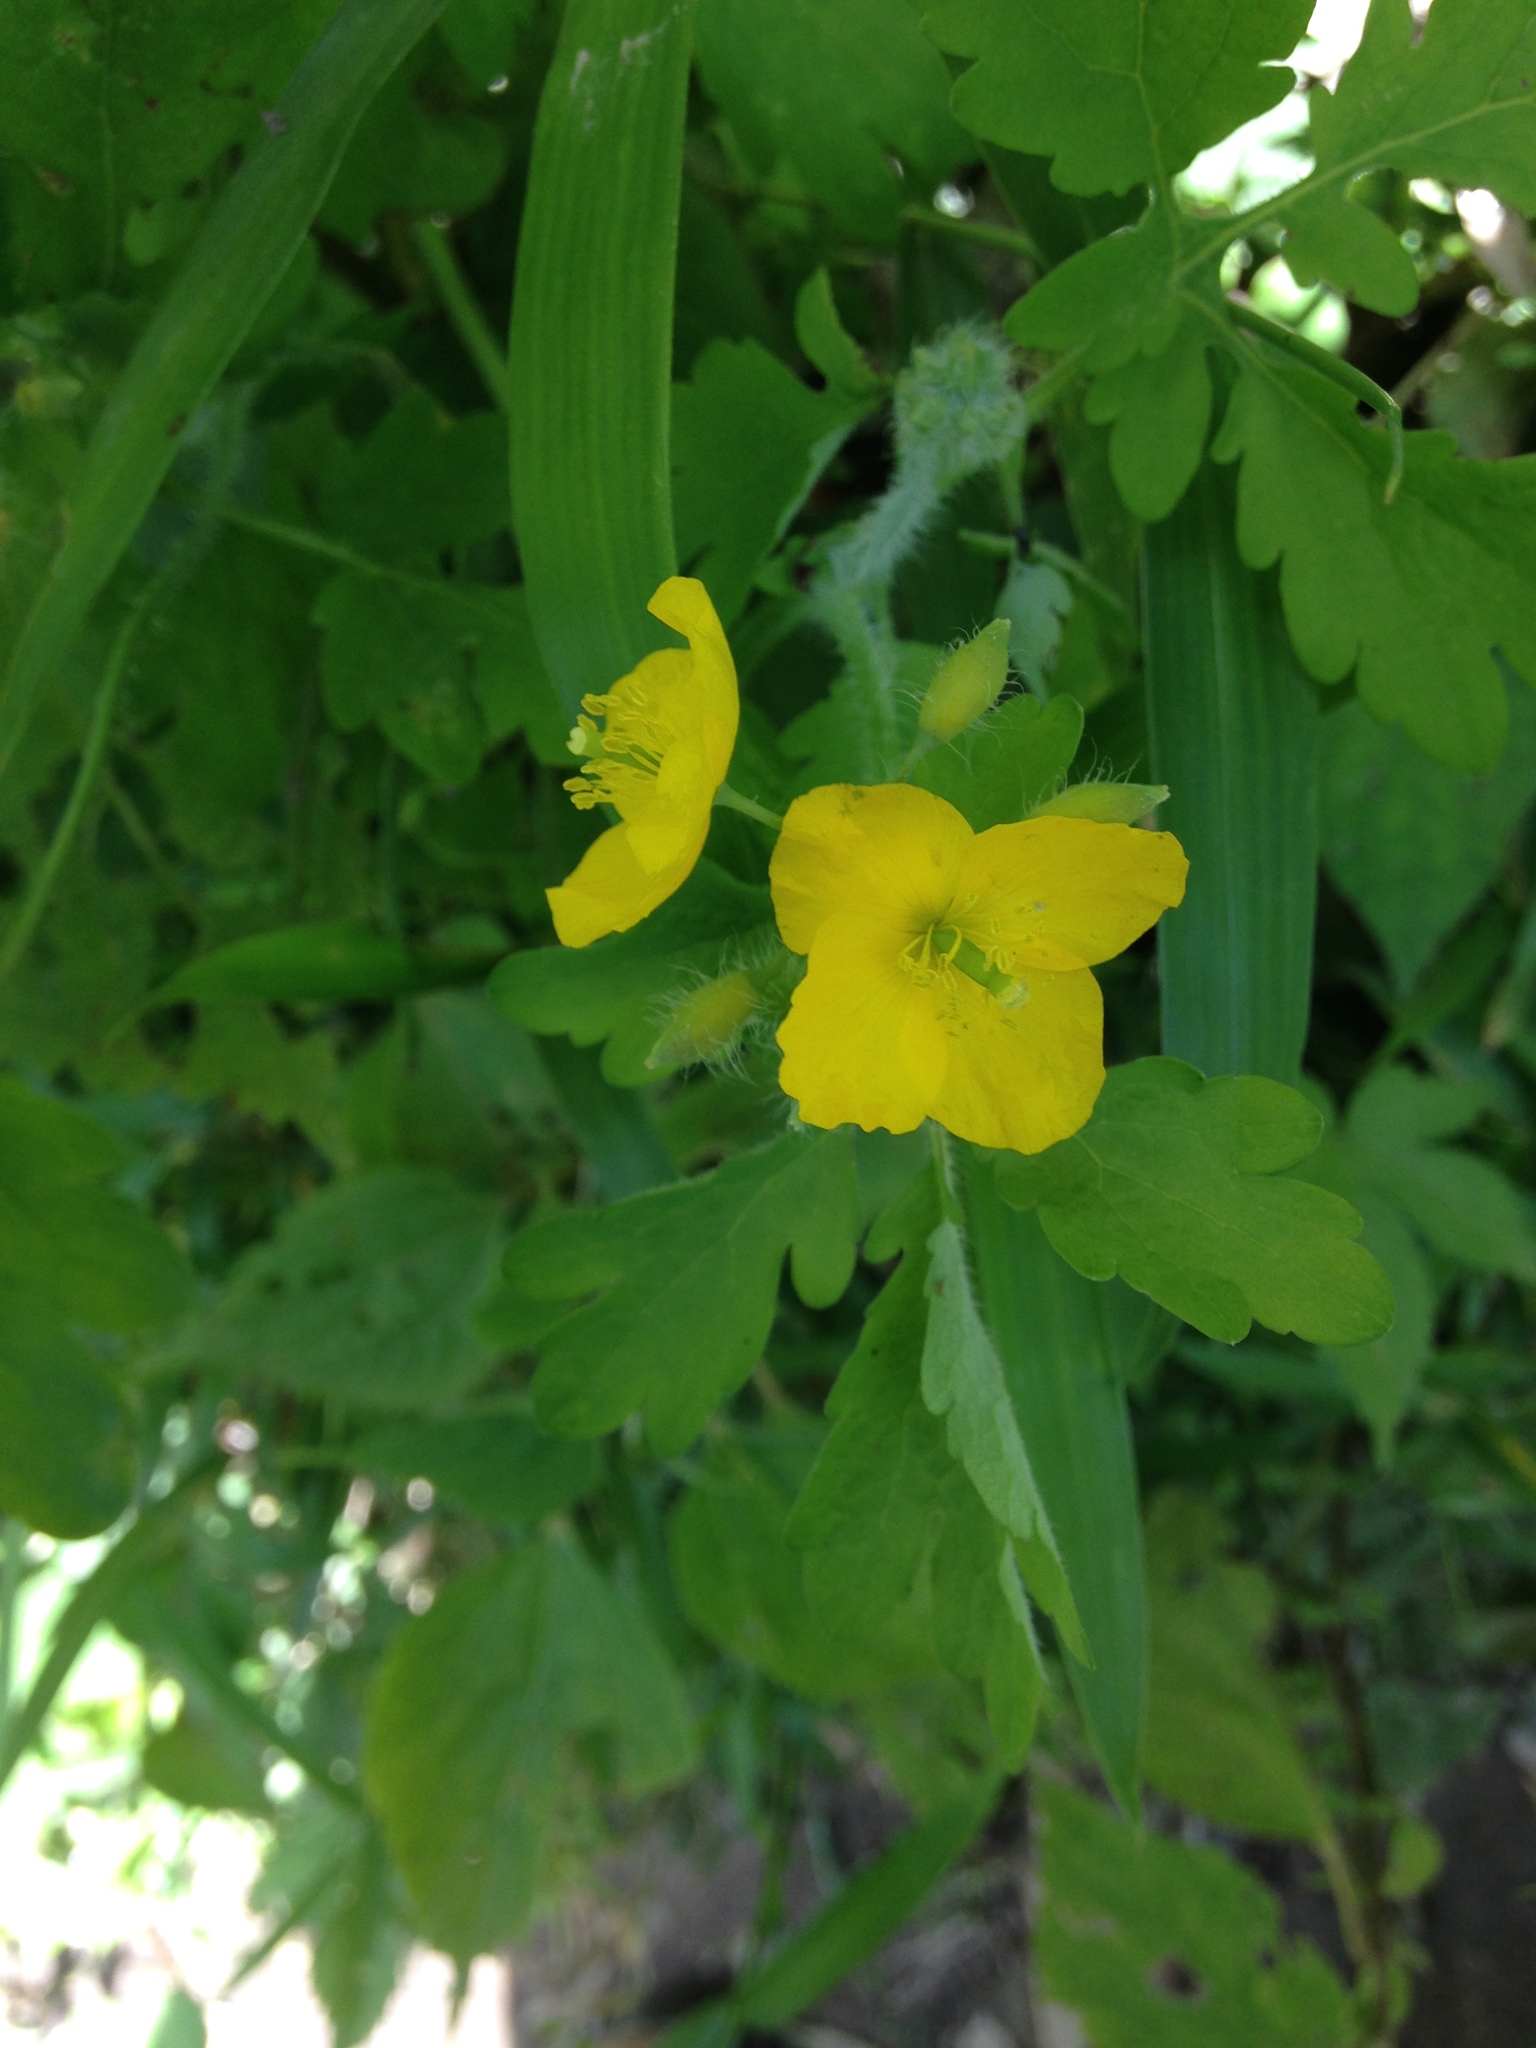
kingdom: Plantae
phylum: Tracheophyta
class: Magnoliopsida
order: Ranunculales
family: Papaveraceae
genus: Chelidonium
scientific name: Chelidonium majus
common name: Greater celandine
